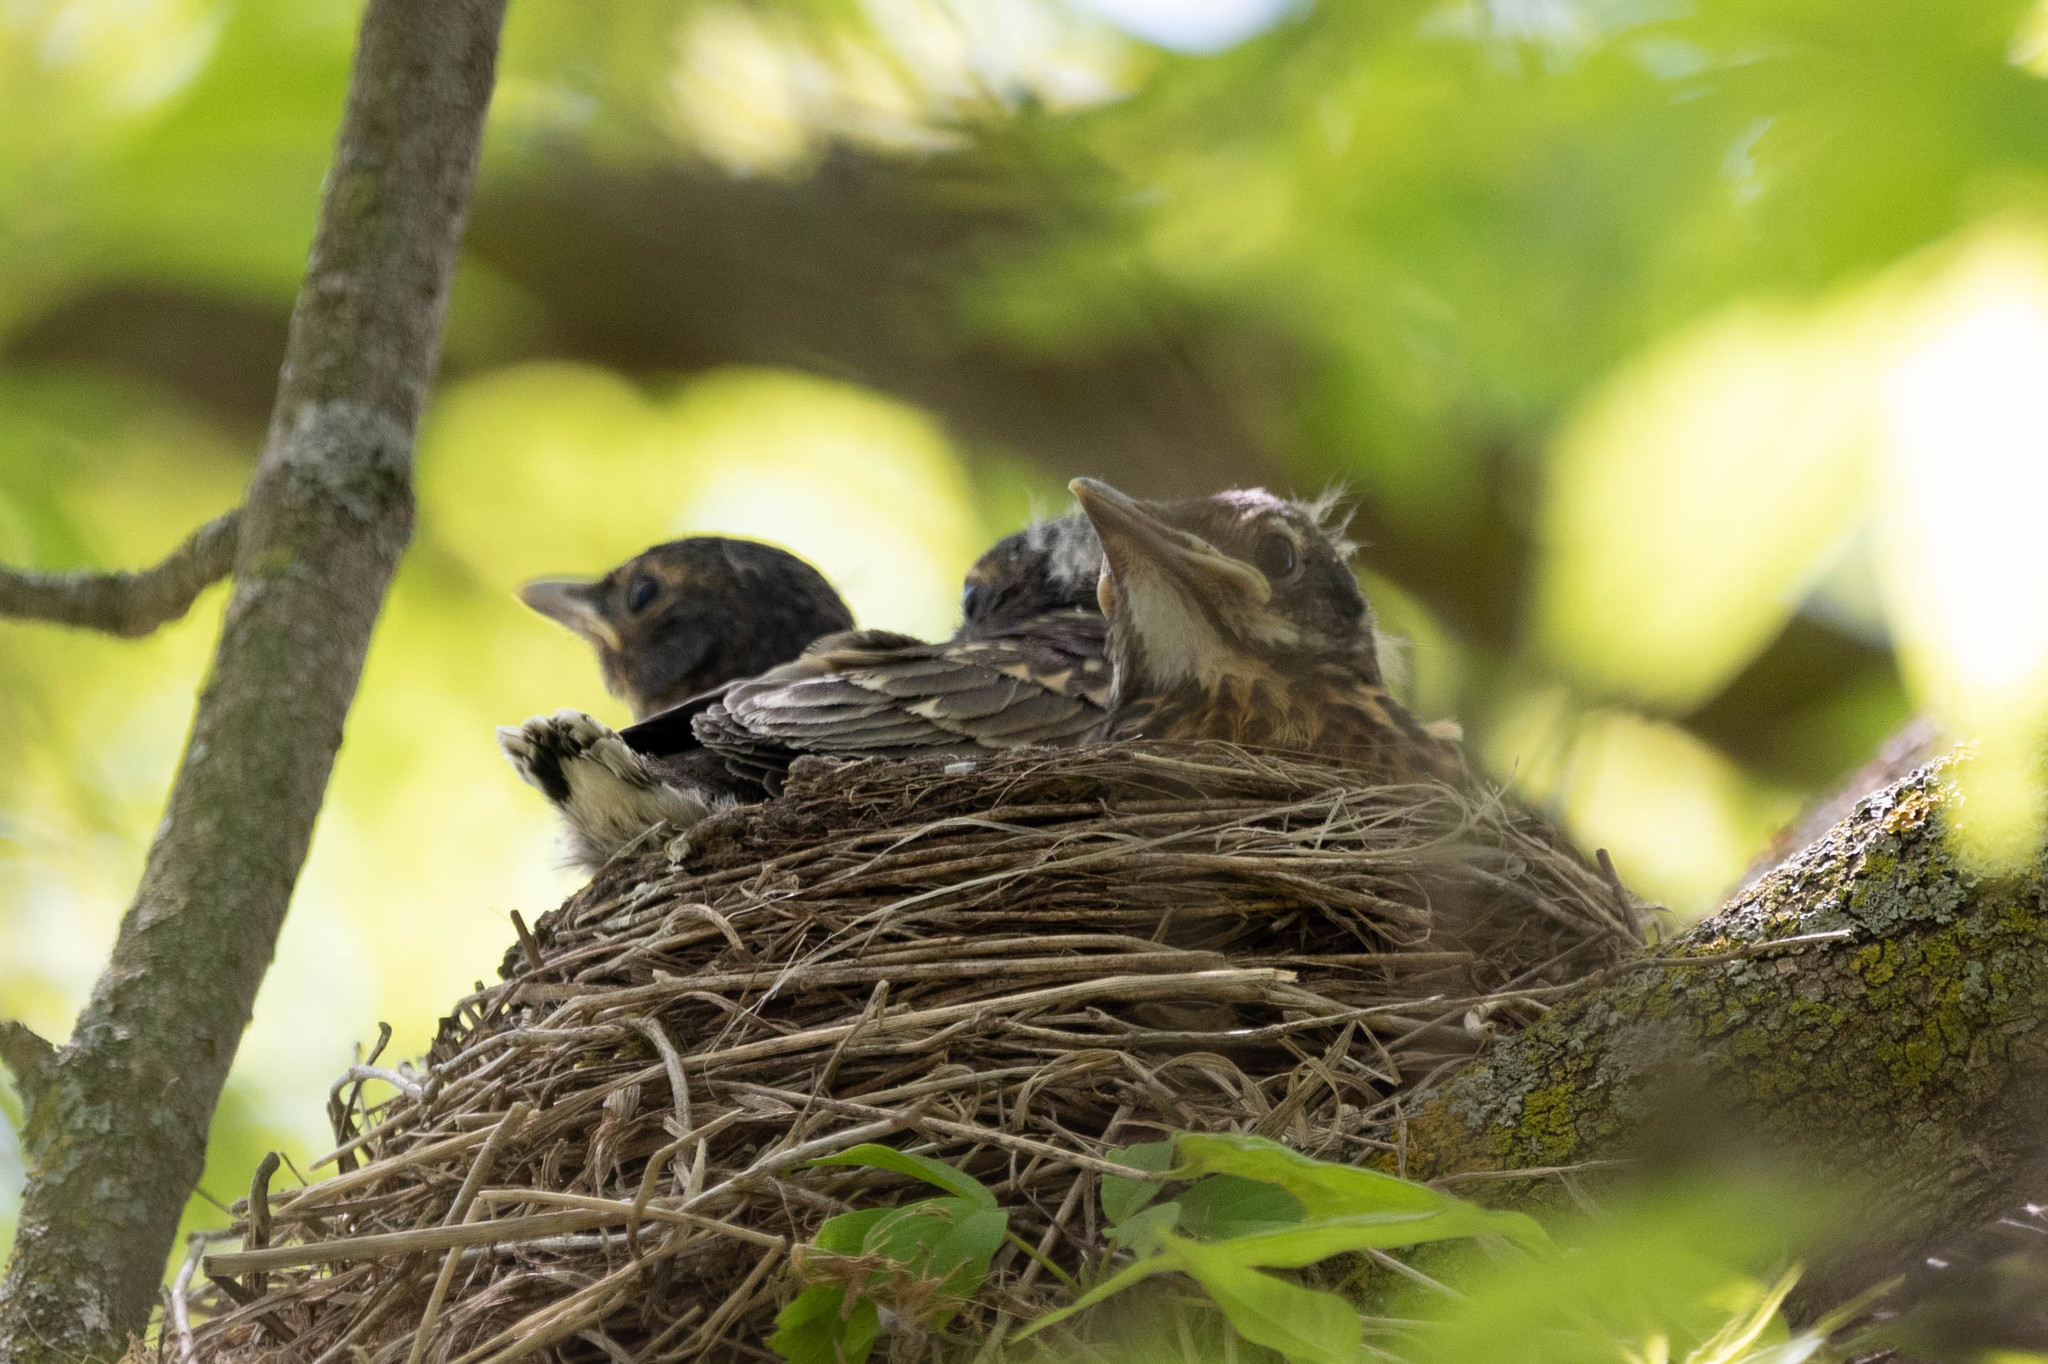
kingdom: Animalia
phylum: Chordata
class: Aves
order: Passeriformes
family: Turdidae
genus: Turdus
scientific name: Turdus migratorius
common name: American robin
